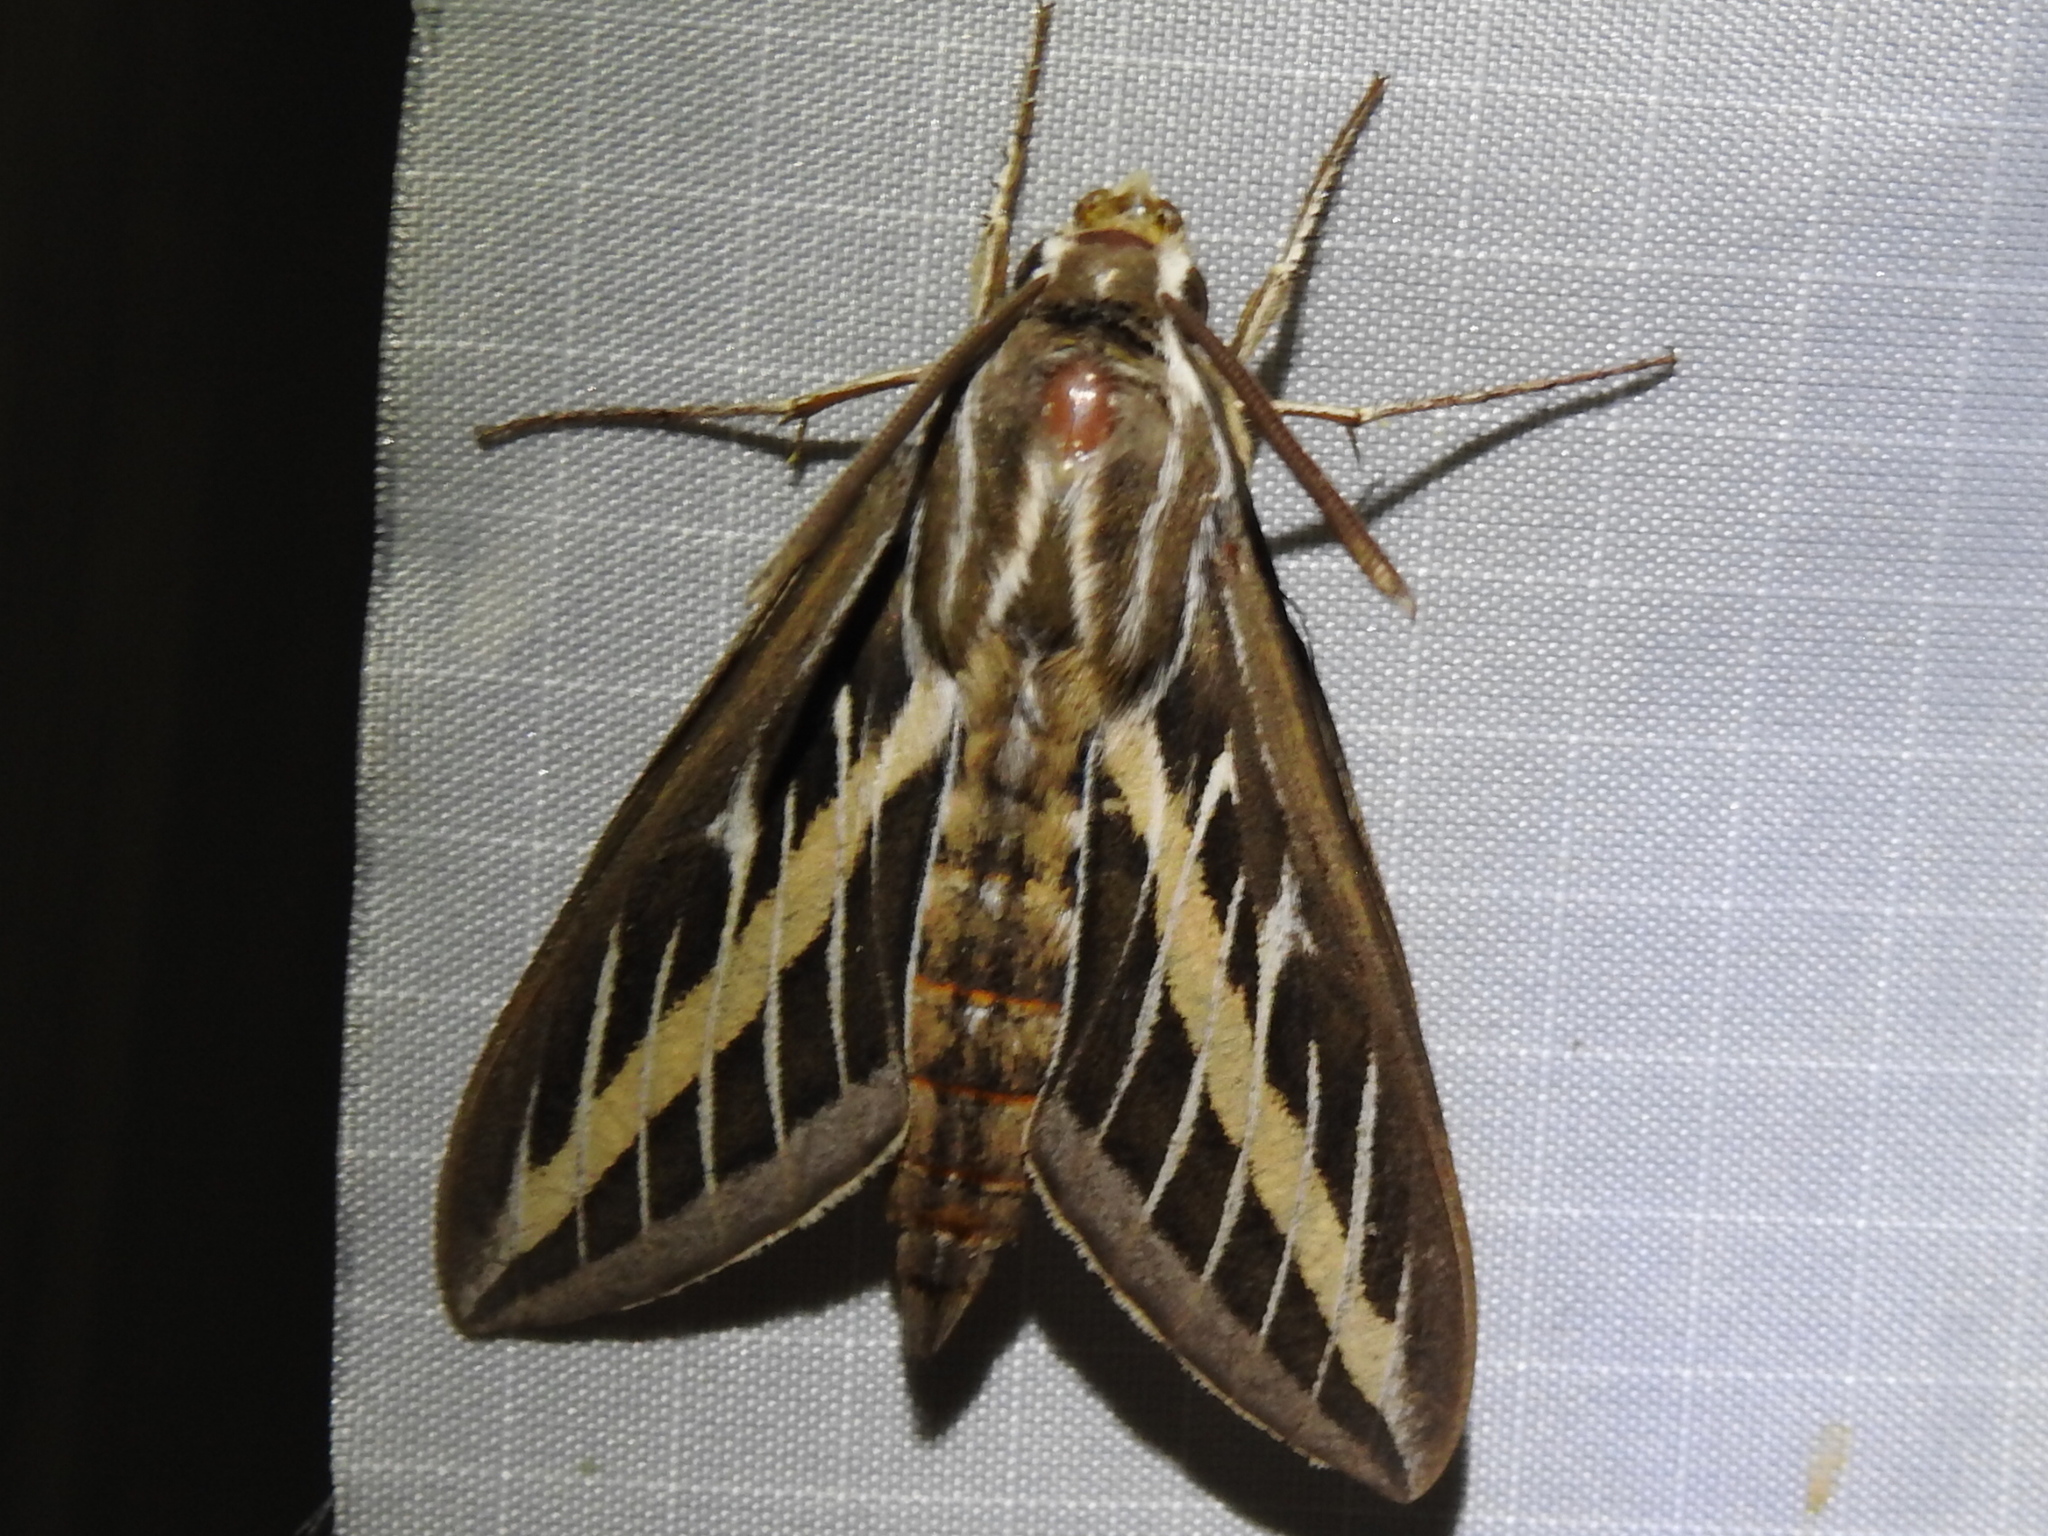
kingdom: Animalia
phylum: Arthropoda
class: Insecta
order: Lepidoptera
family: Sphingidae
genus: Hyles
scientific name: Hyles lineata
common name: White-lined sphinx
